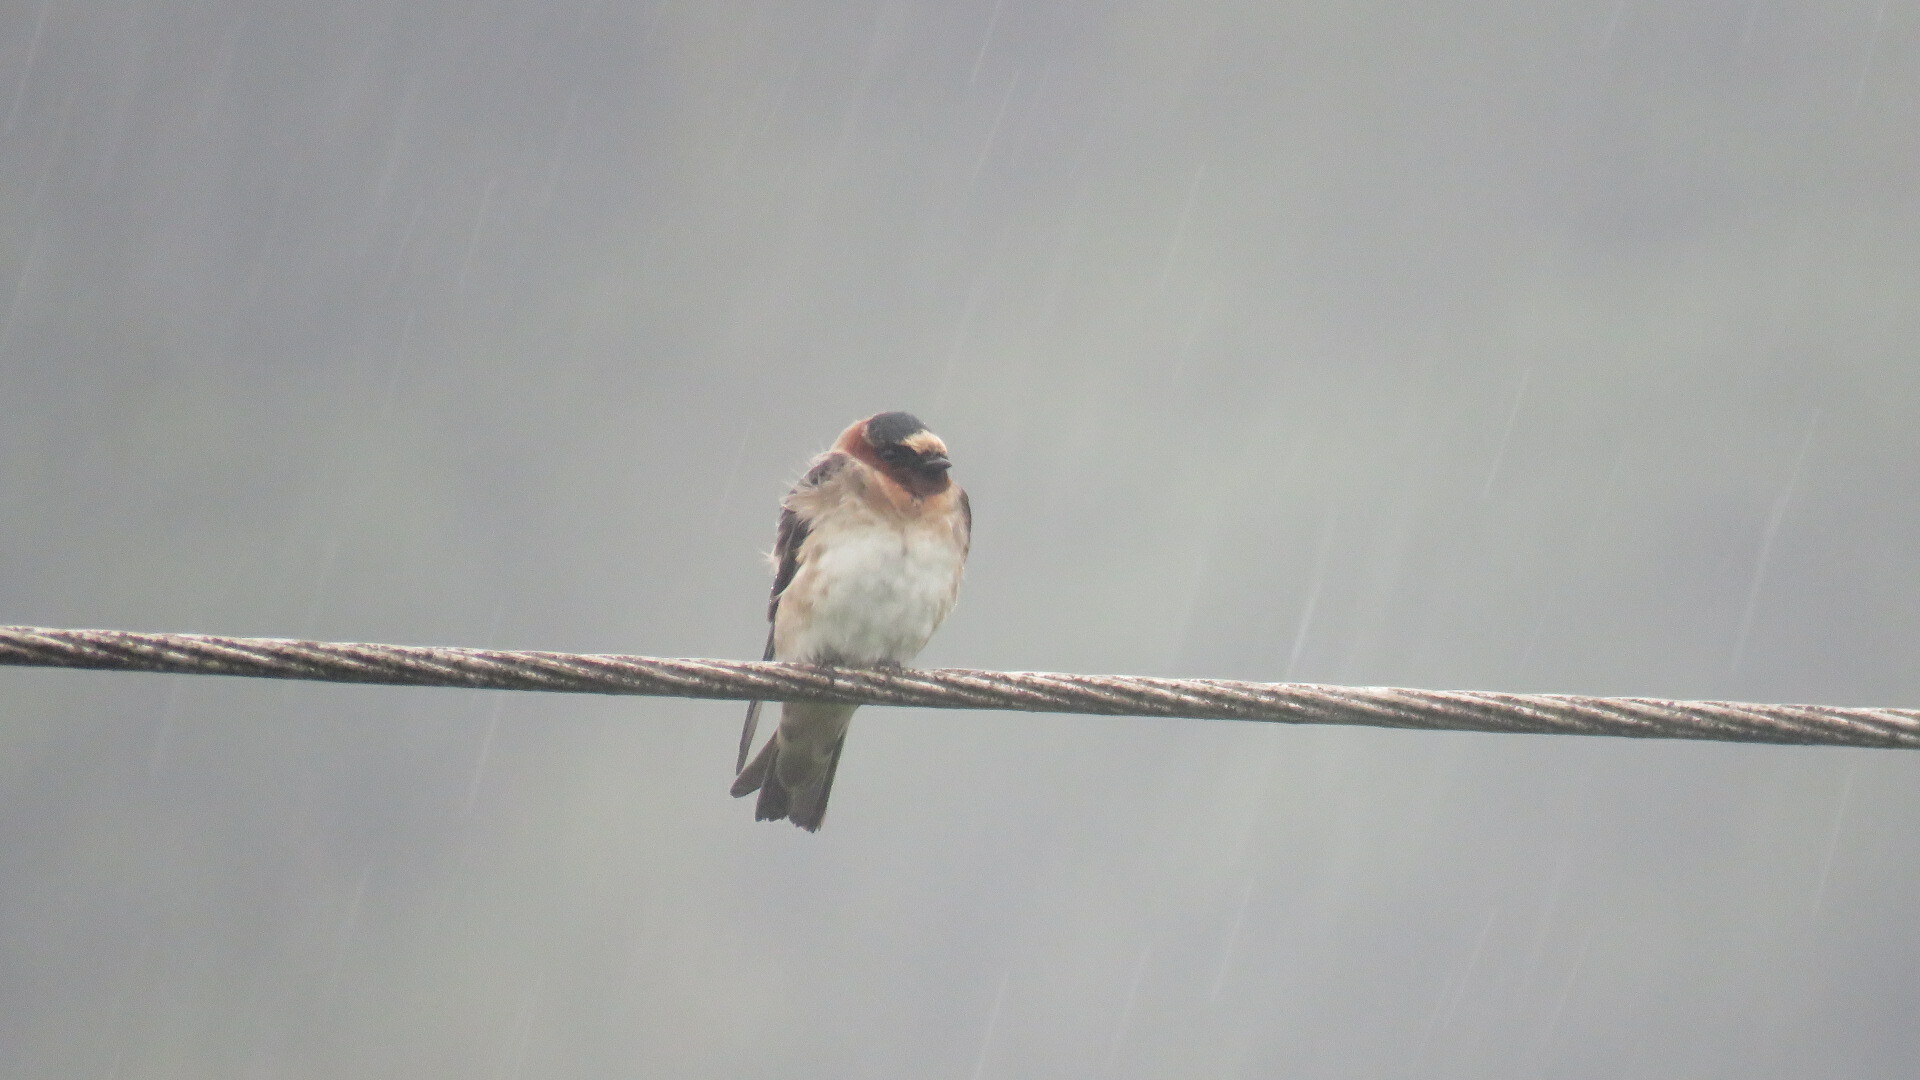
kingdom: Animalia
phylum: Chordata
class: Aves
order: Passeriformes
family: Hirundinidae
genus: Petrochelidon
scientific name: Petrochelidon pyrrhonota
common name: American cliff swallow
